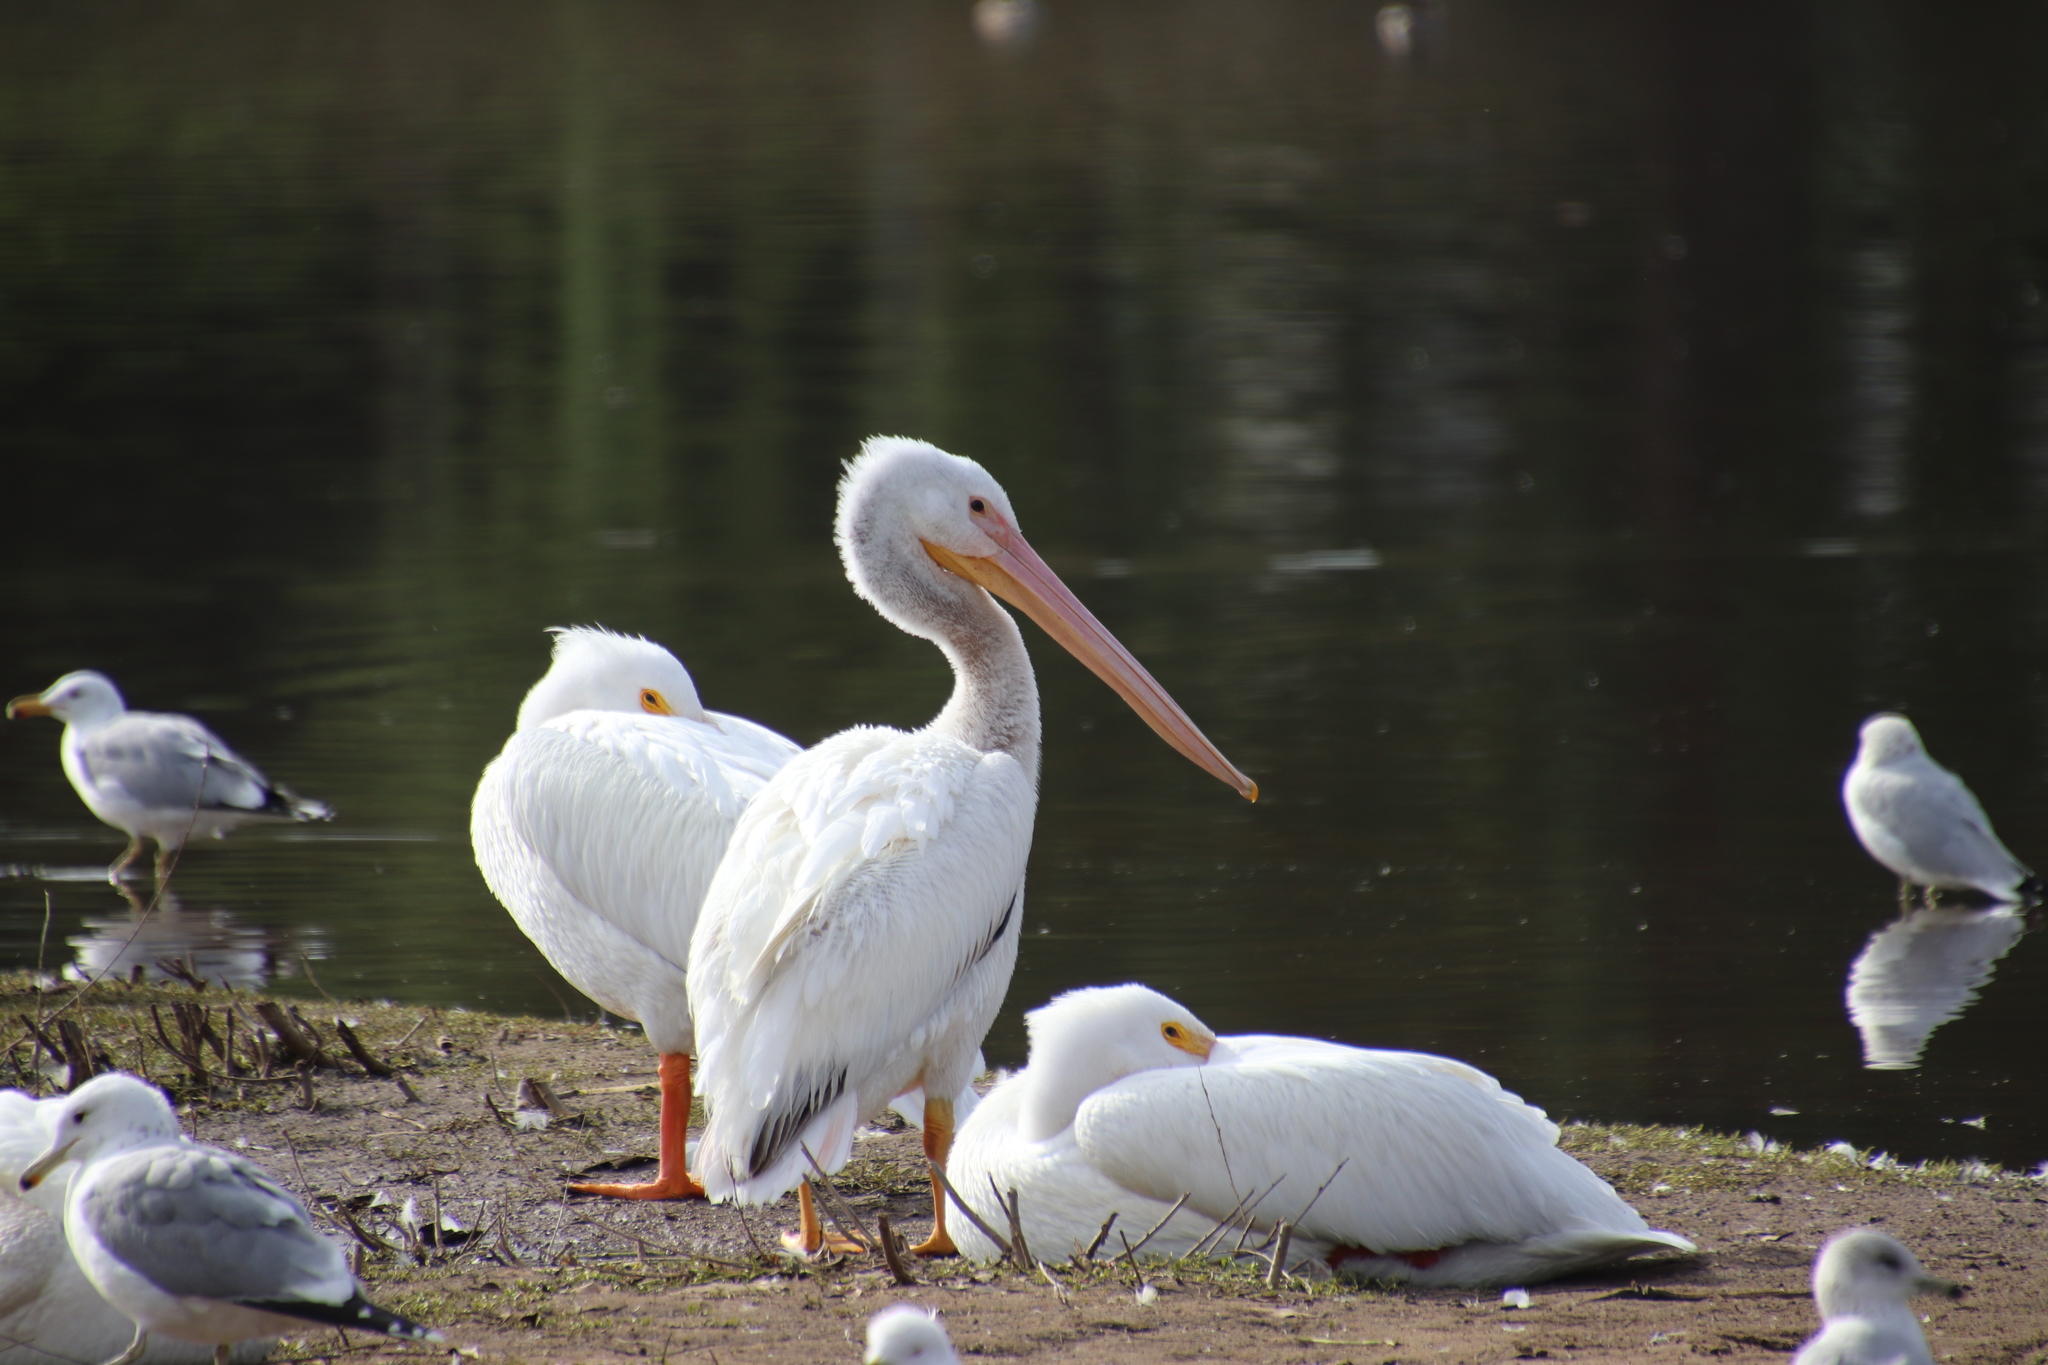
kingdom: Animalia
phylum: Chordata
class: Aves
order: Pelecaniformes
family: Pelecanidae
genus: Pelecanus
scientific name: Pelecanus erythrorhynchos
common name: American white pelican
